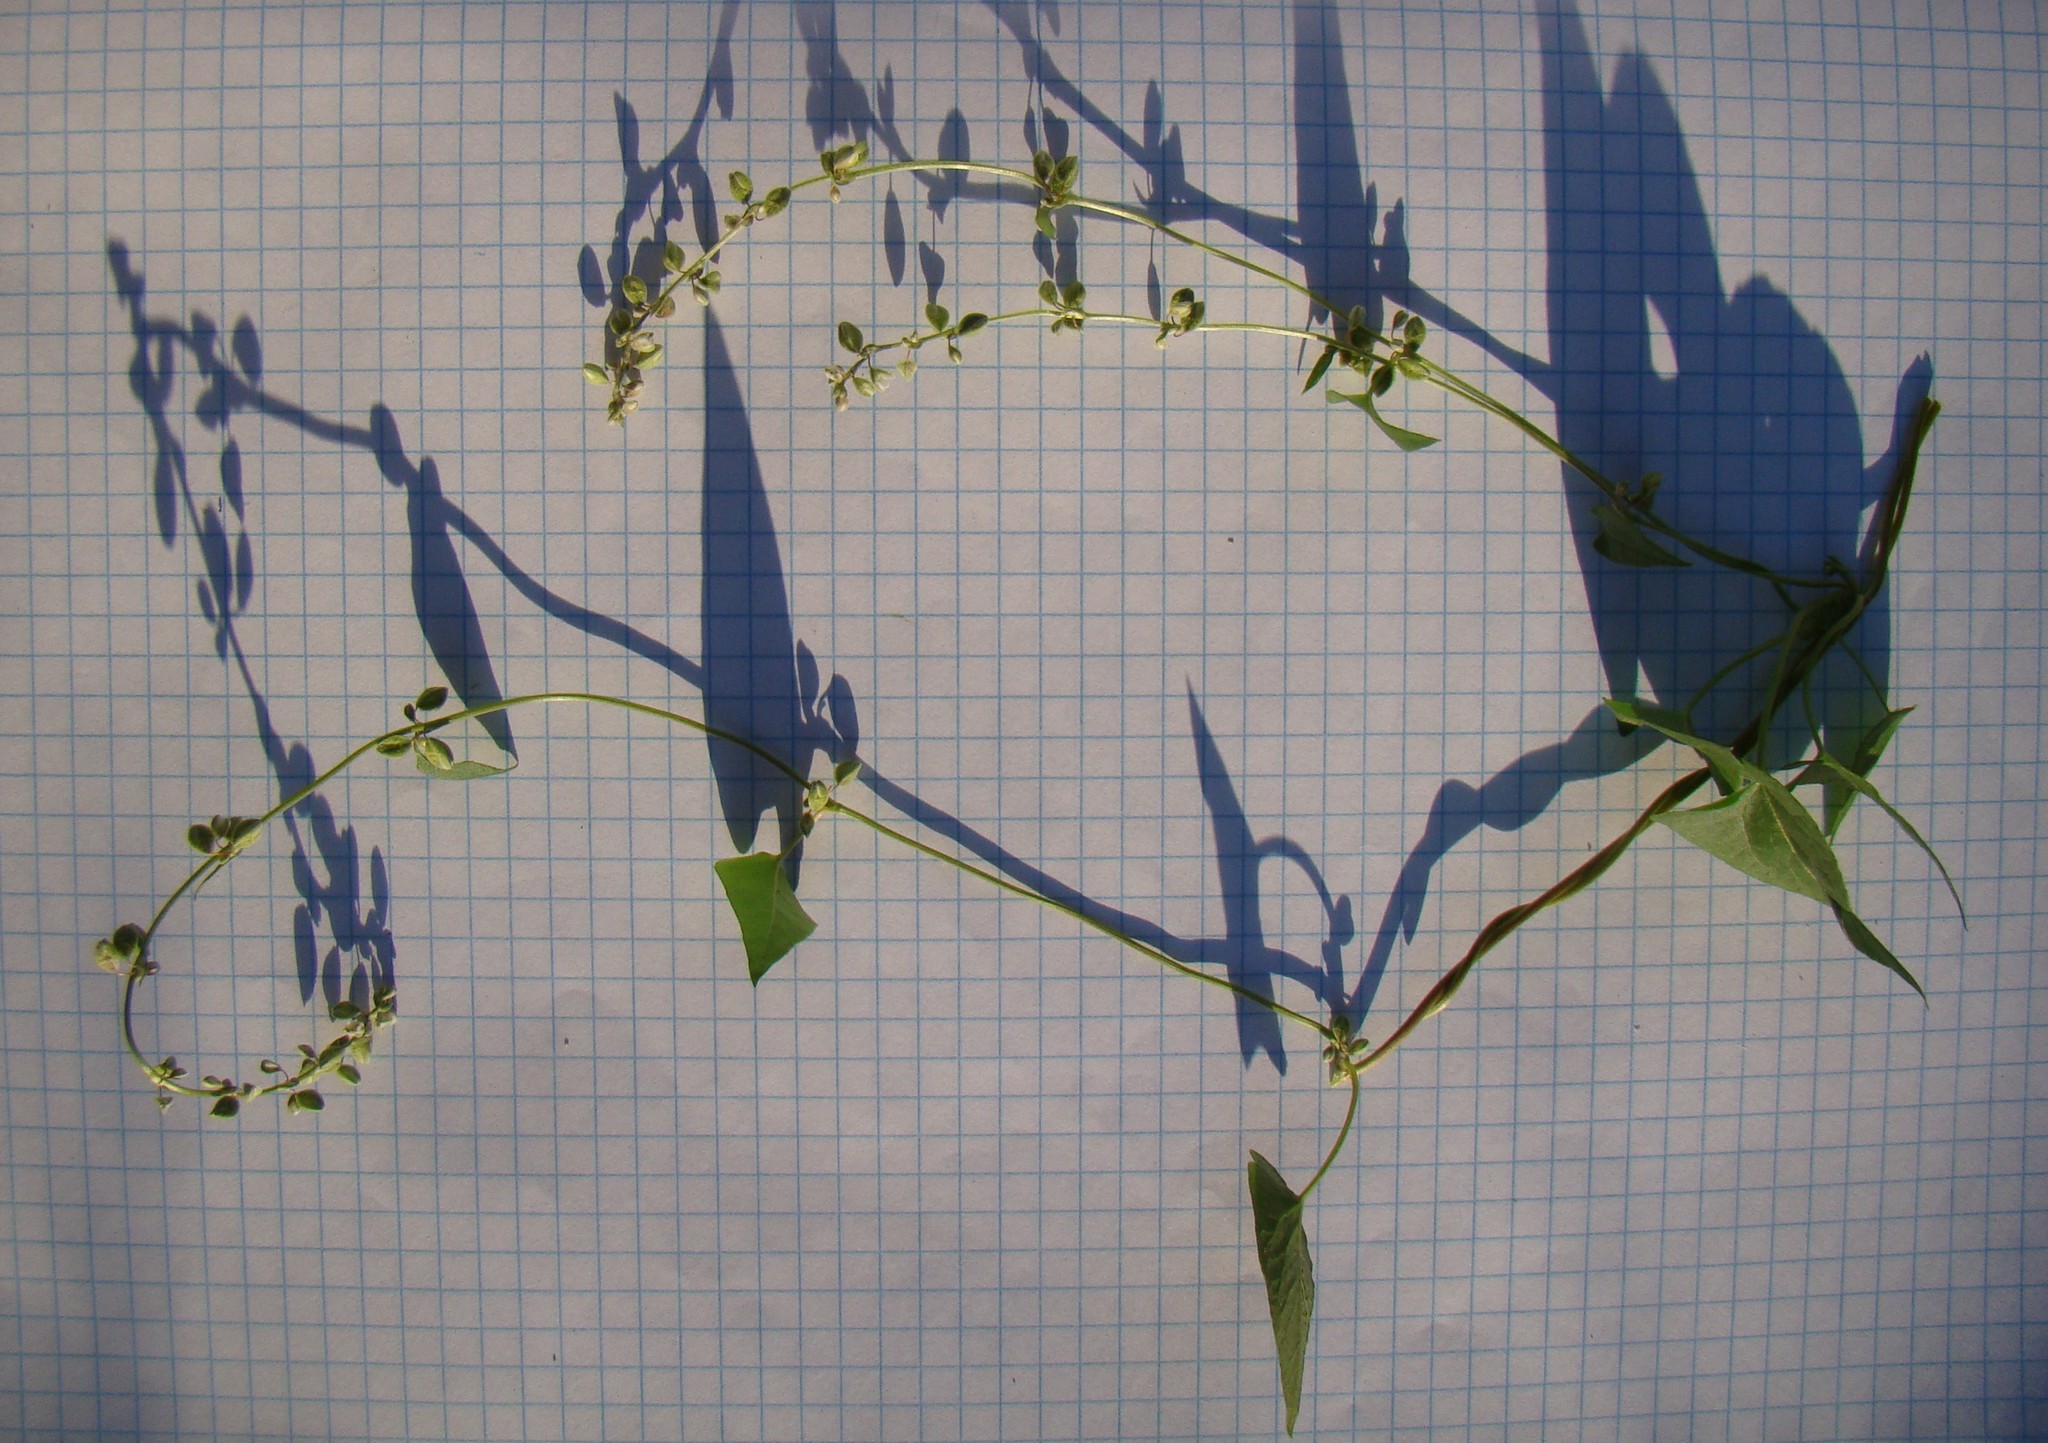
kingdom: Plantae
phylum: Tracheophyta
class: Magnoliopsida
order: Caryophyllales
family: Polygonaceae
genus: Fallopia
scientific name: Fallopia convolvulus
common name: Black bindweed
